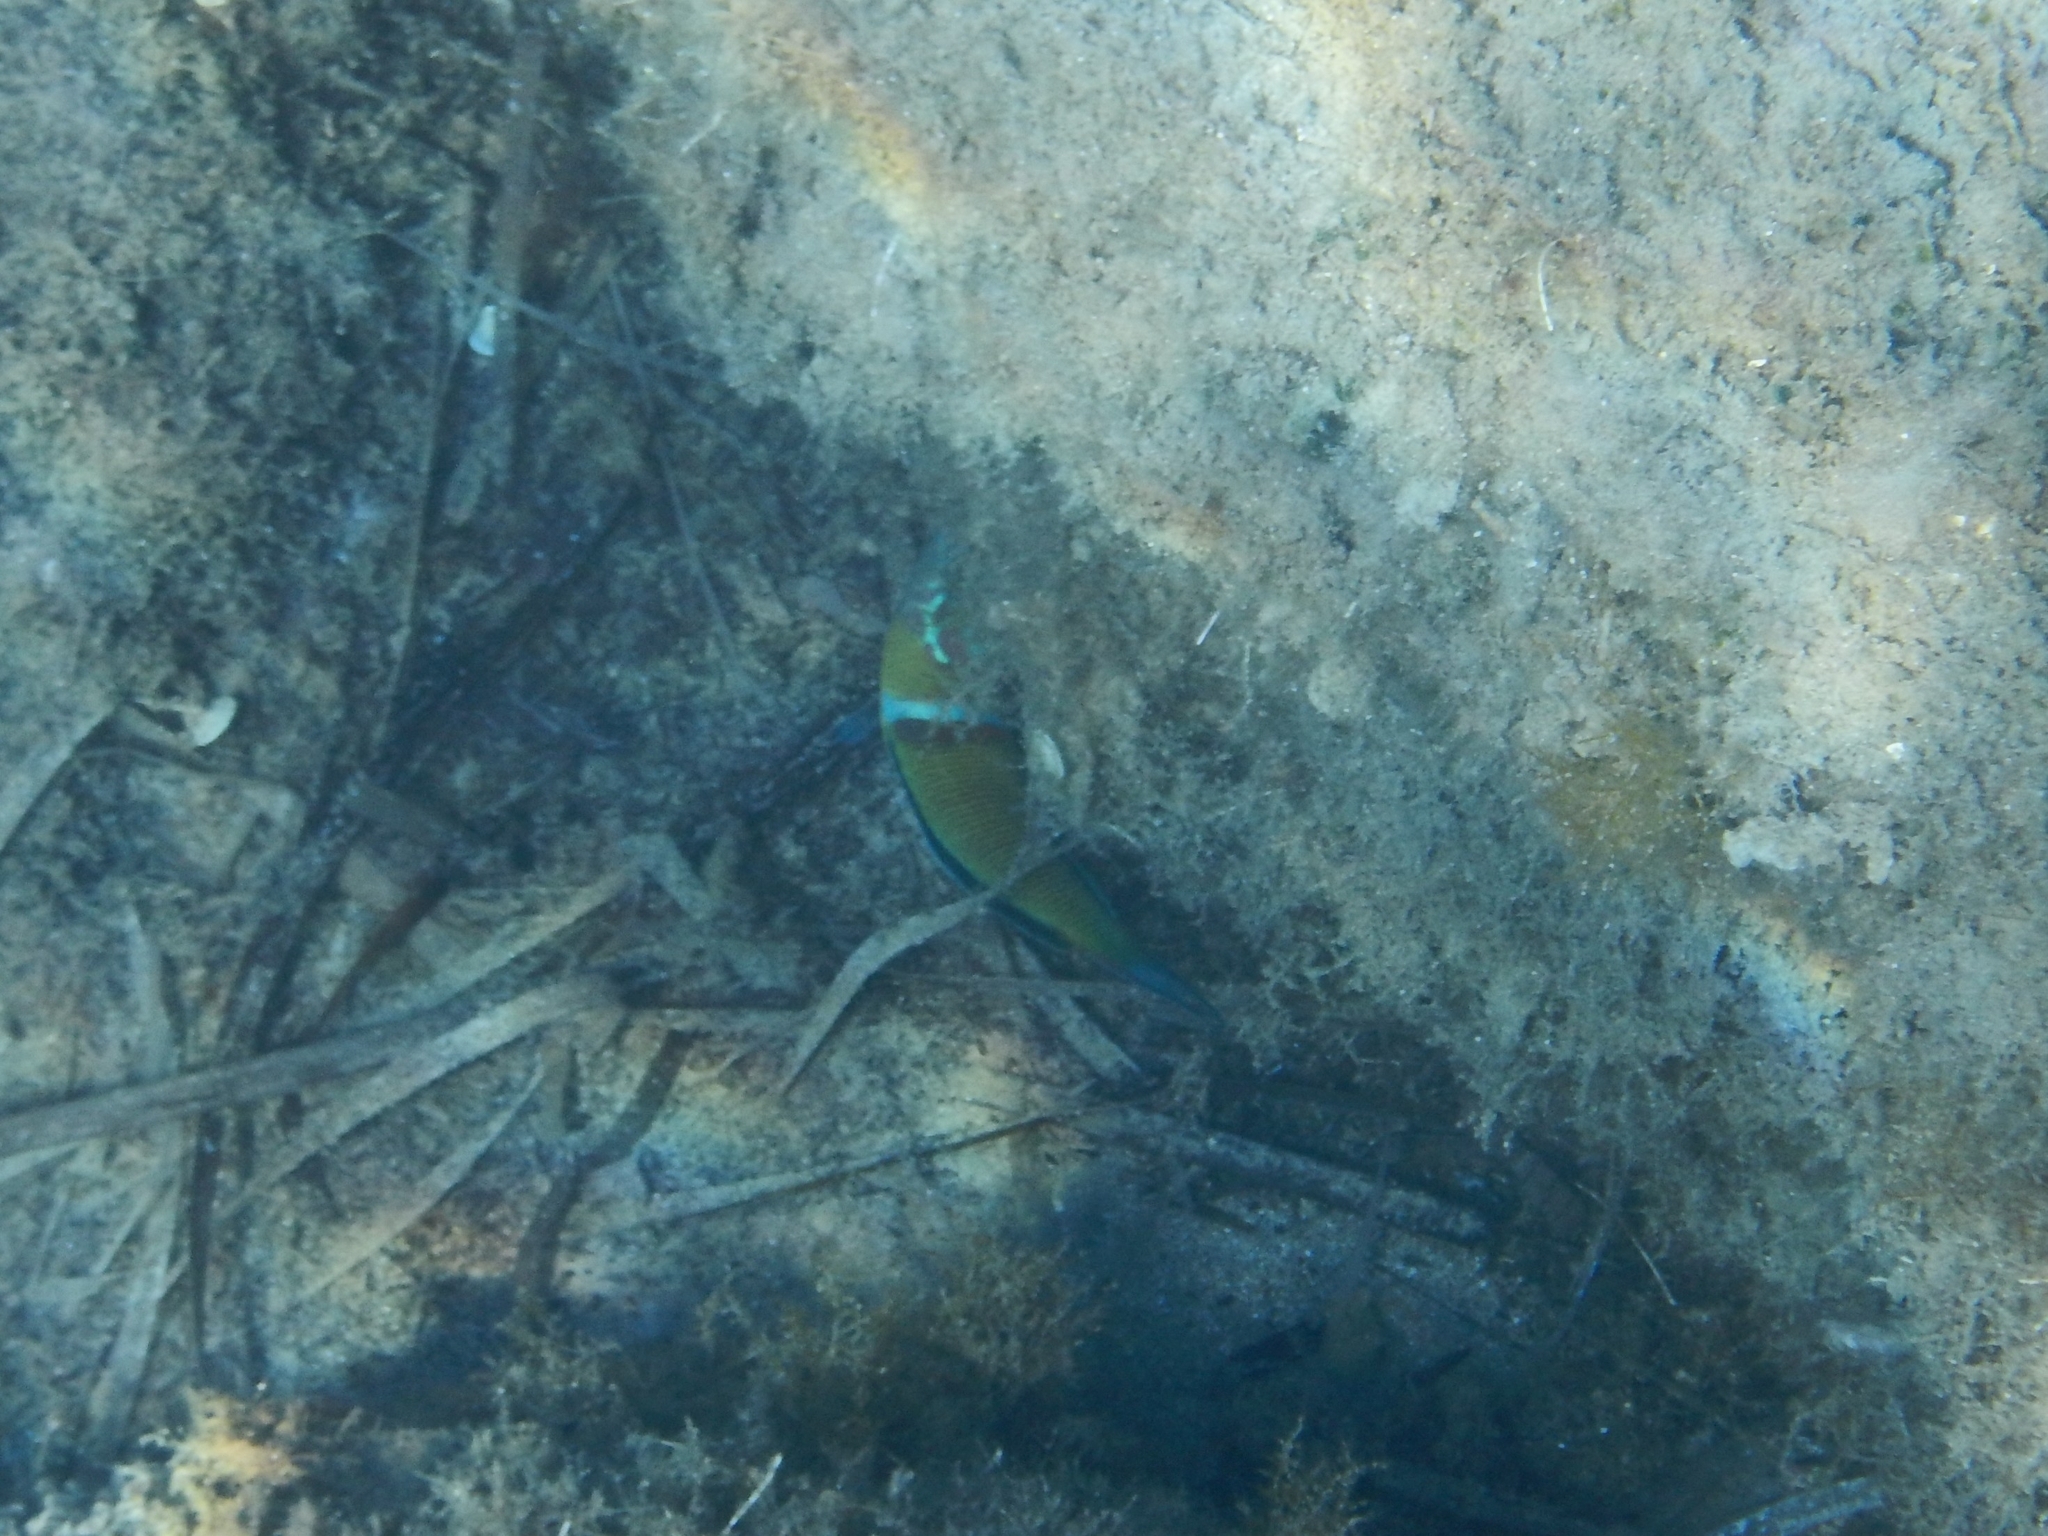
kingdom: Animalia
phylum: Chordata
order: Perciformes
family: Labridae
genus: Thalassoma
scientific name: Thalassoma pavo
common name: Ornate wrasse
